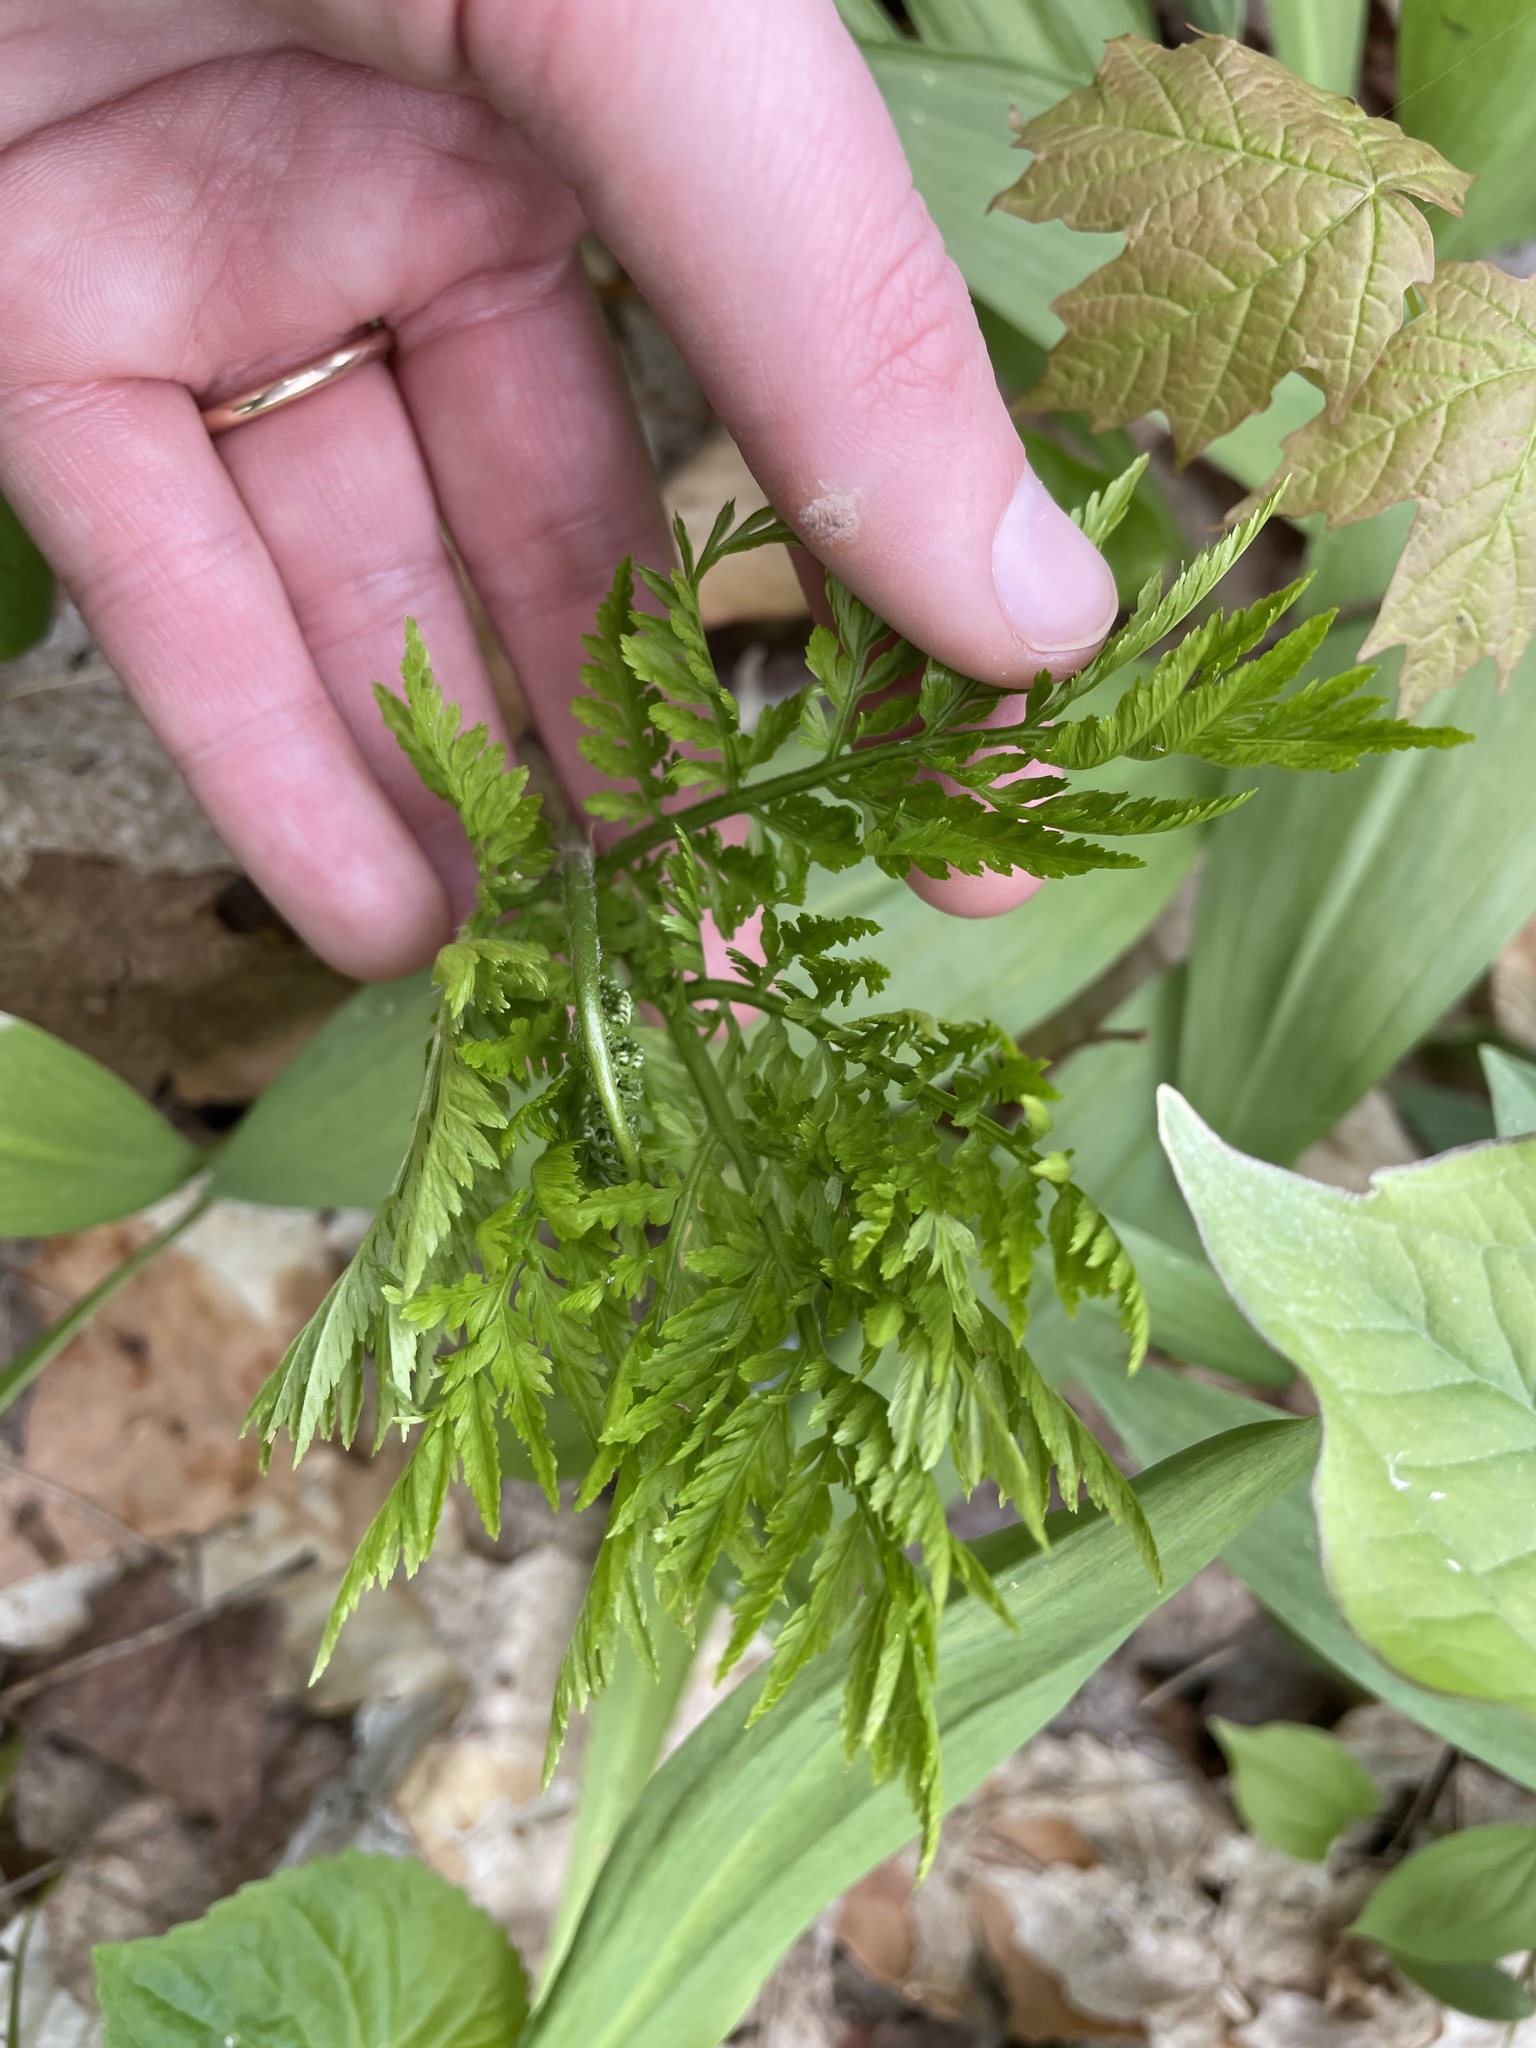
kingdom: Plantae
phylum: Tracheophyta
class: Polypodiopsida
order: Ophioglossales
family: Ophioglossaceae
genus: Botrypus
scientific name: Botrypus virginianus
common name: Common grapefern
